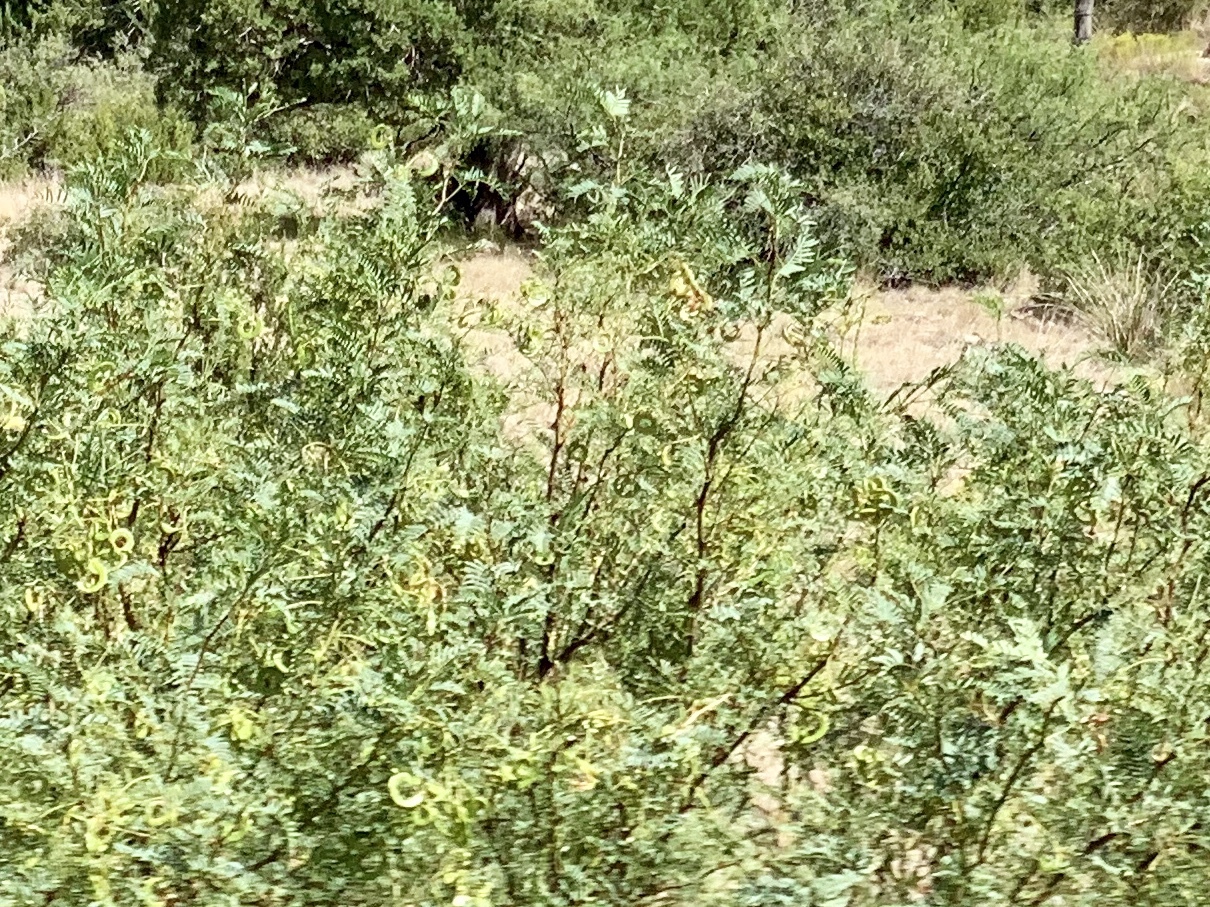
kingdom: Plantae
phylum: Tracheophyta
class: Magnoliopsida
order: Fabales
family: Fabaceae
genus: Prosopis
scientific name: Prosopis glandulosa
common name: Honey mesquite
